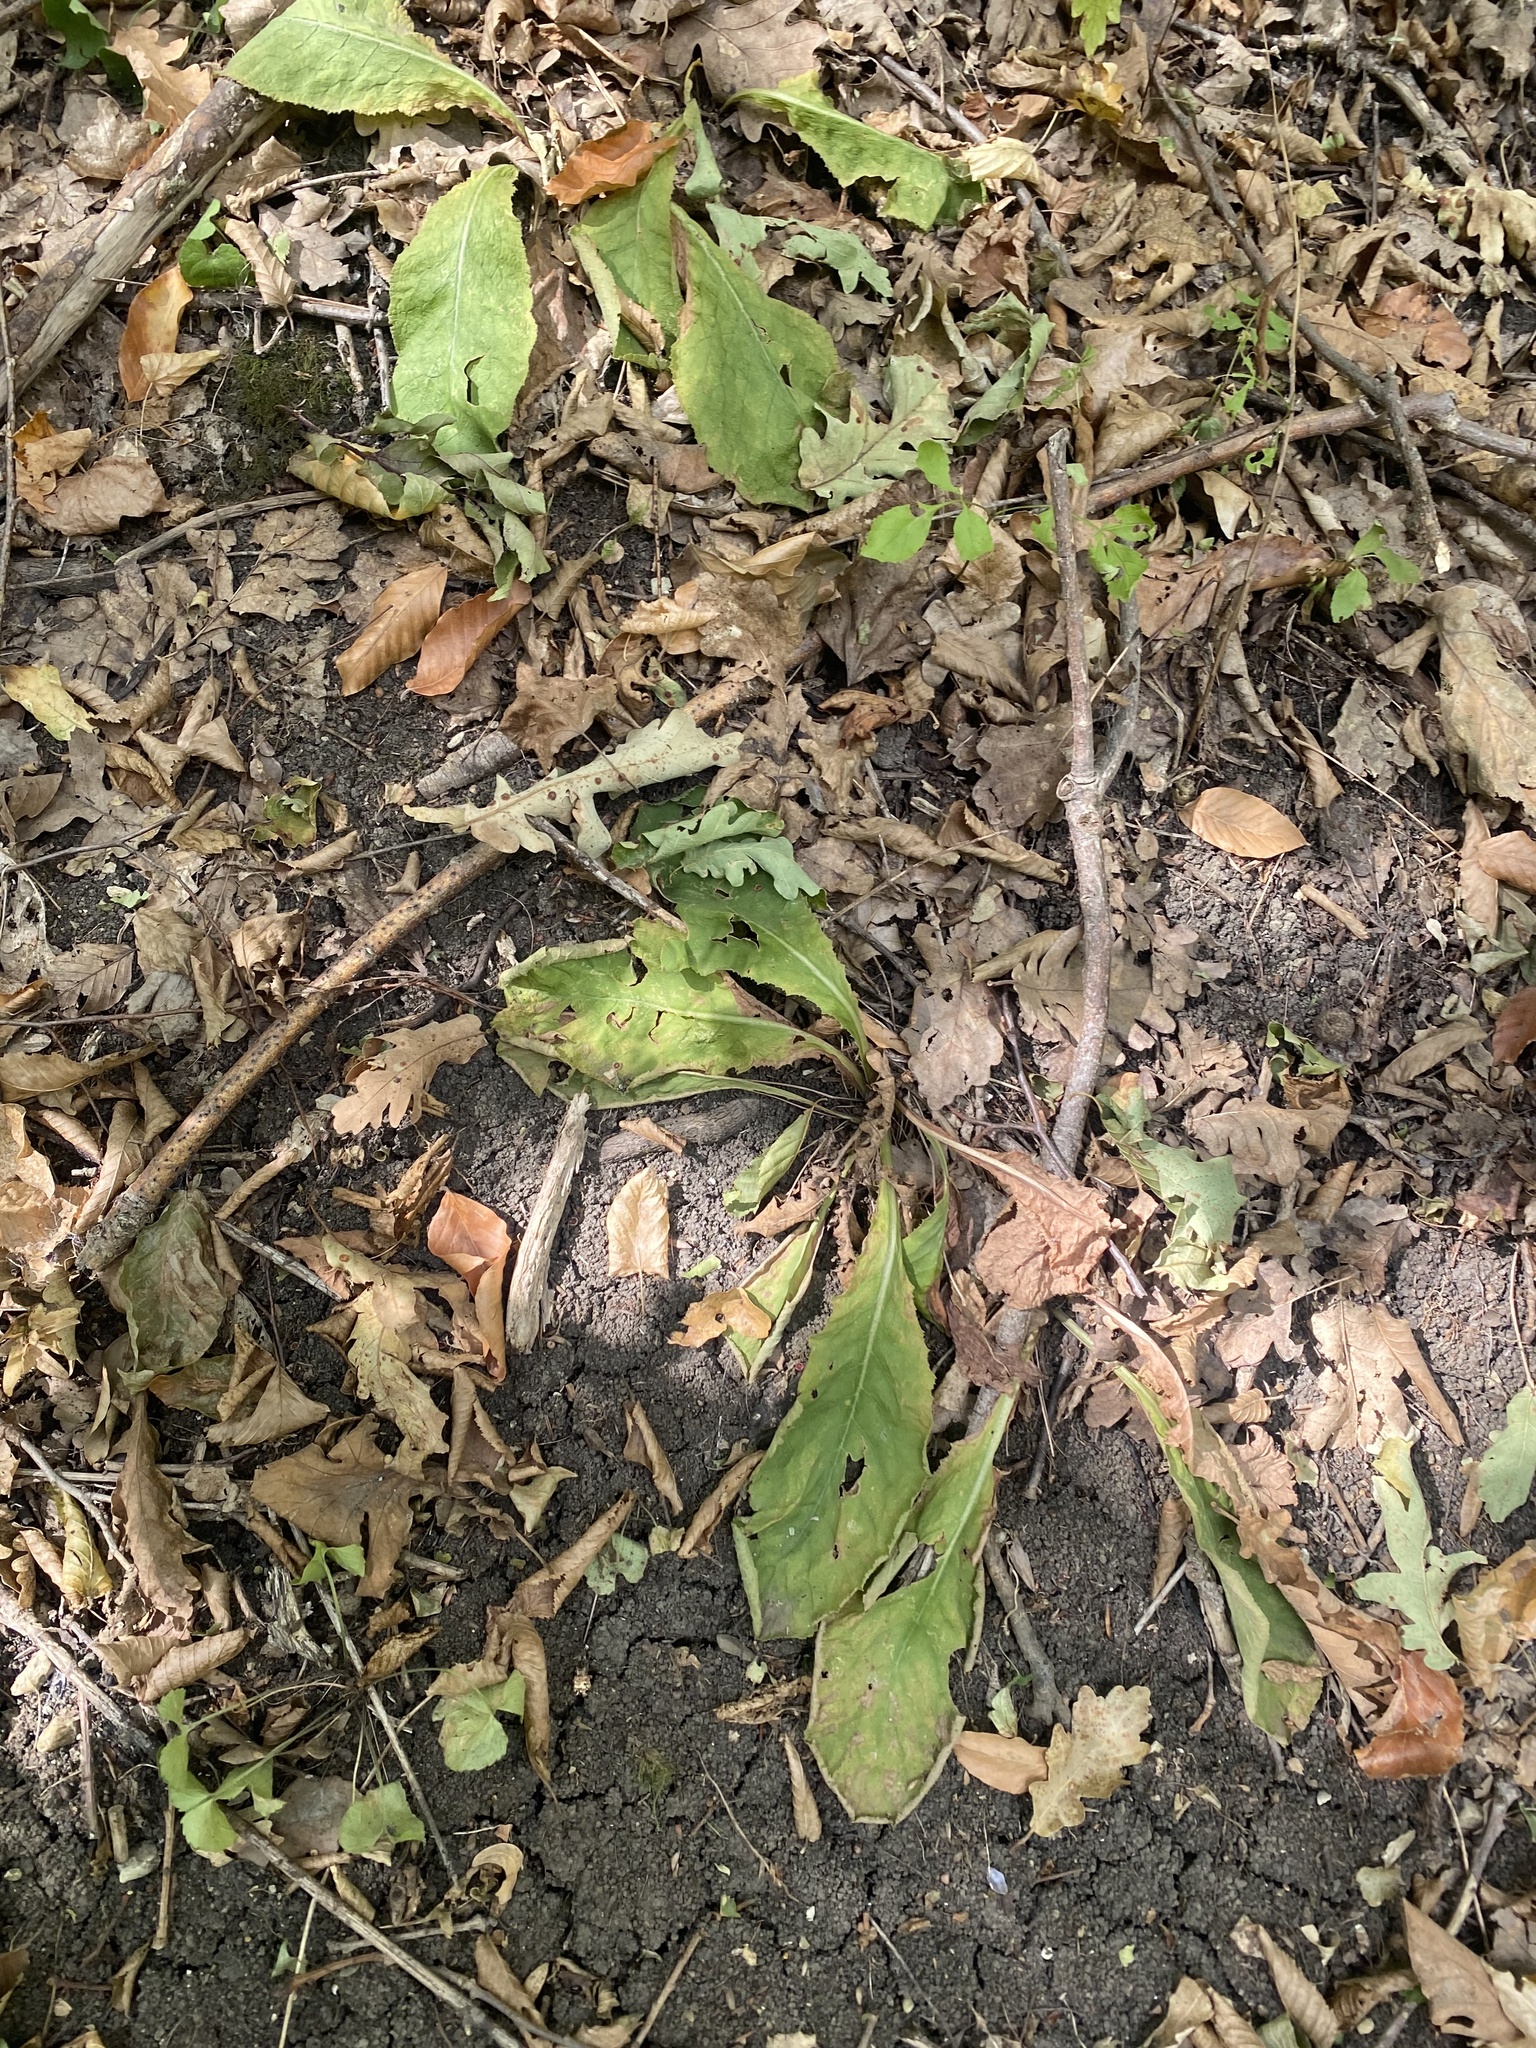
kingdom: Plantae
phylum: Tracheophyta
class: Magnoliopsida
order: Ericales
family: Primulaceae
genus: Primula
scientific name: Primula vulgaris
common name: Primrose
